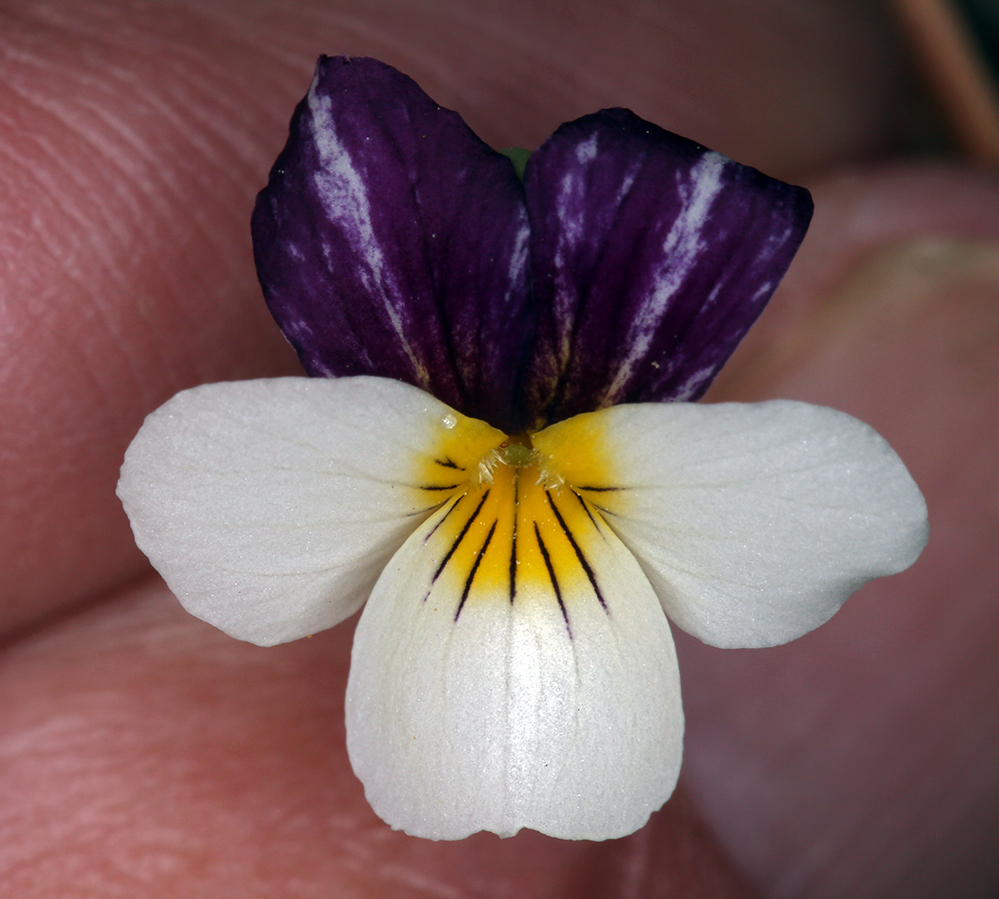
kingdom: Plantae
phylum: Tracheophyta
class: Magnoliopsida
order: Malpighiales
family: Violaceae
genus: Viola
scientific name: Viola hallii
